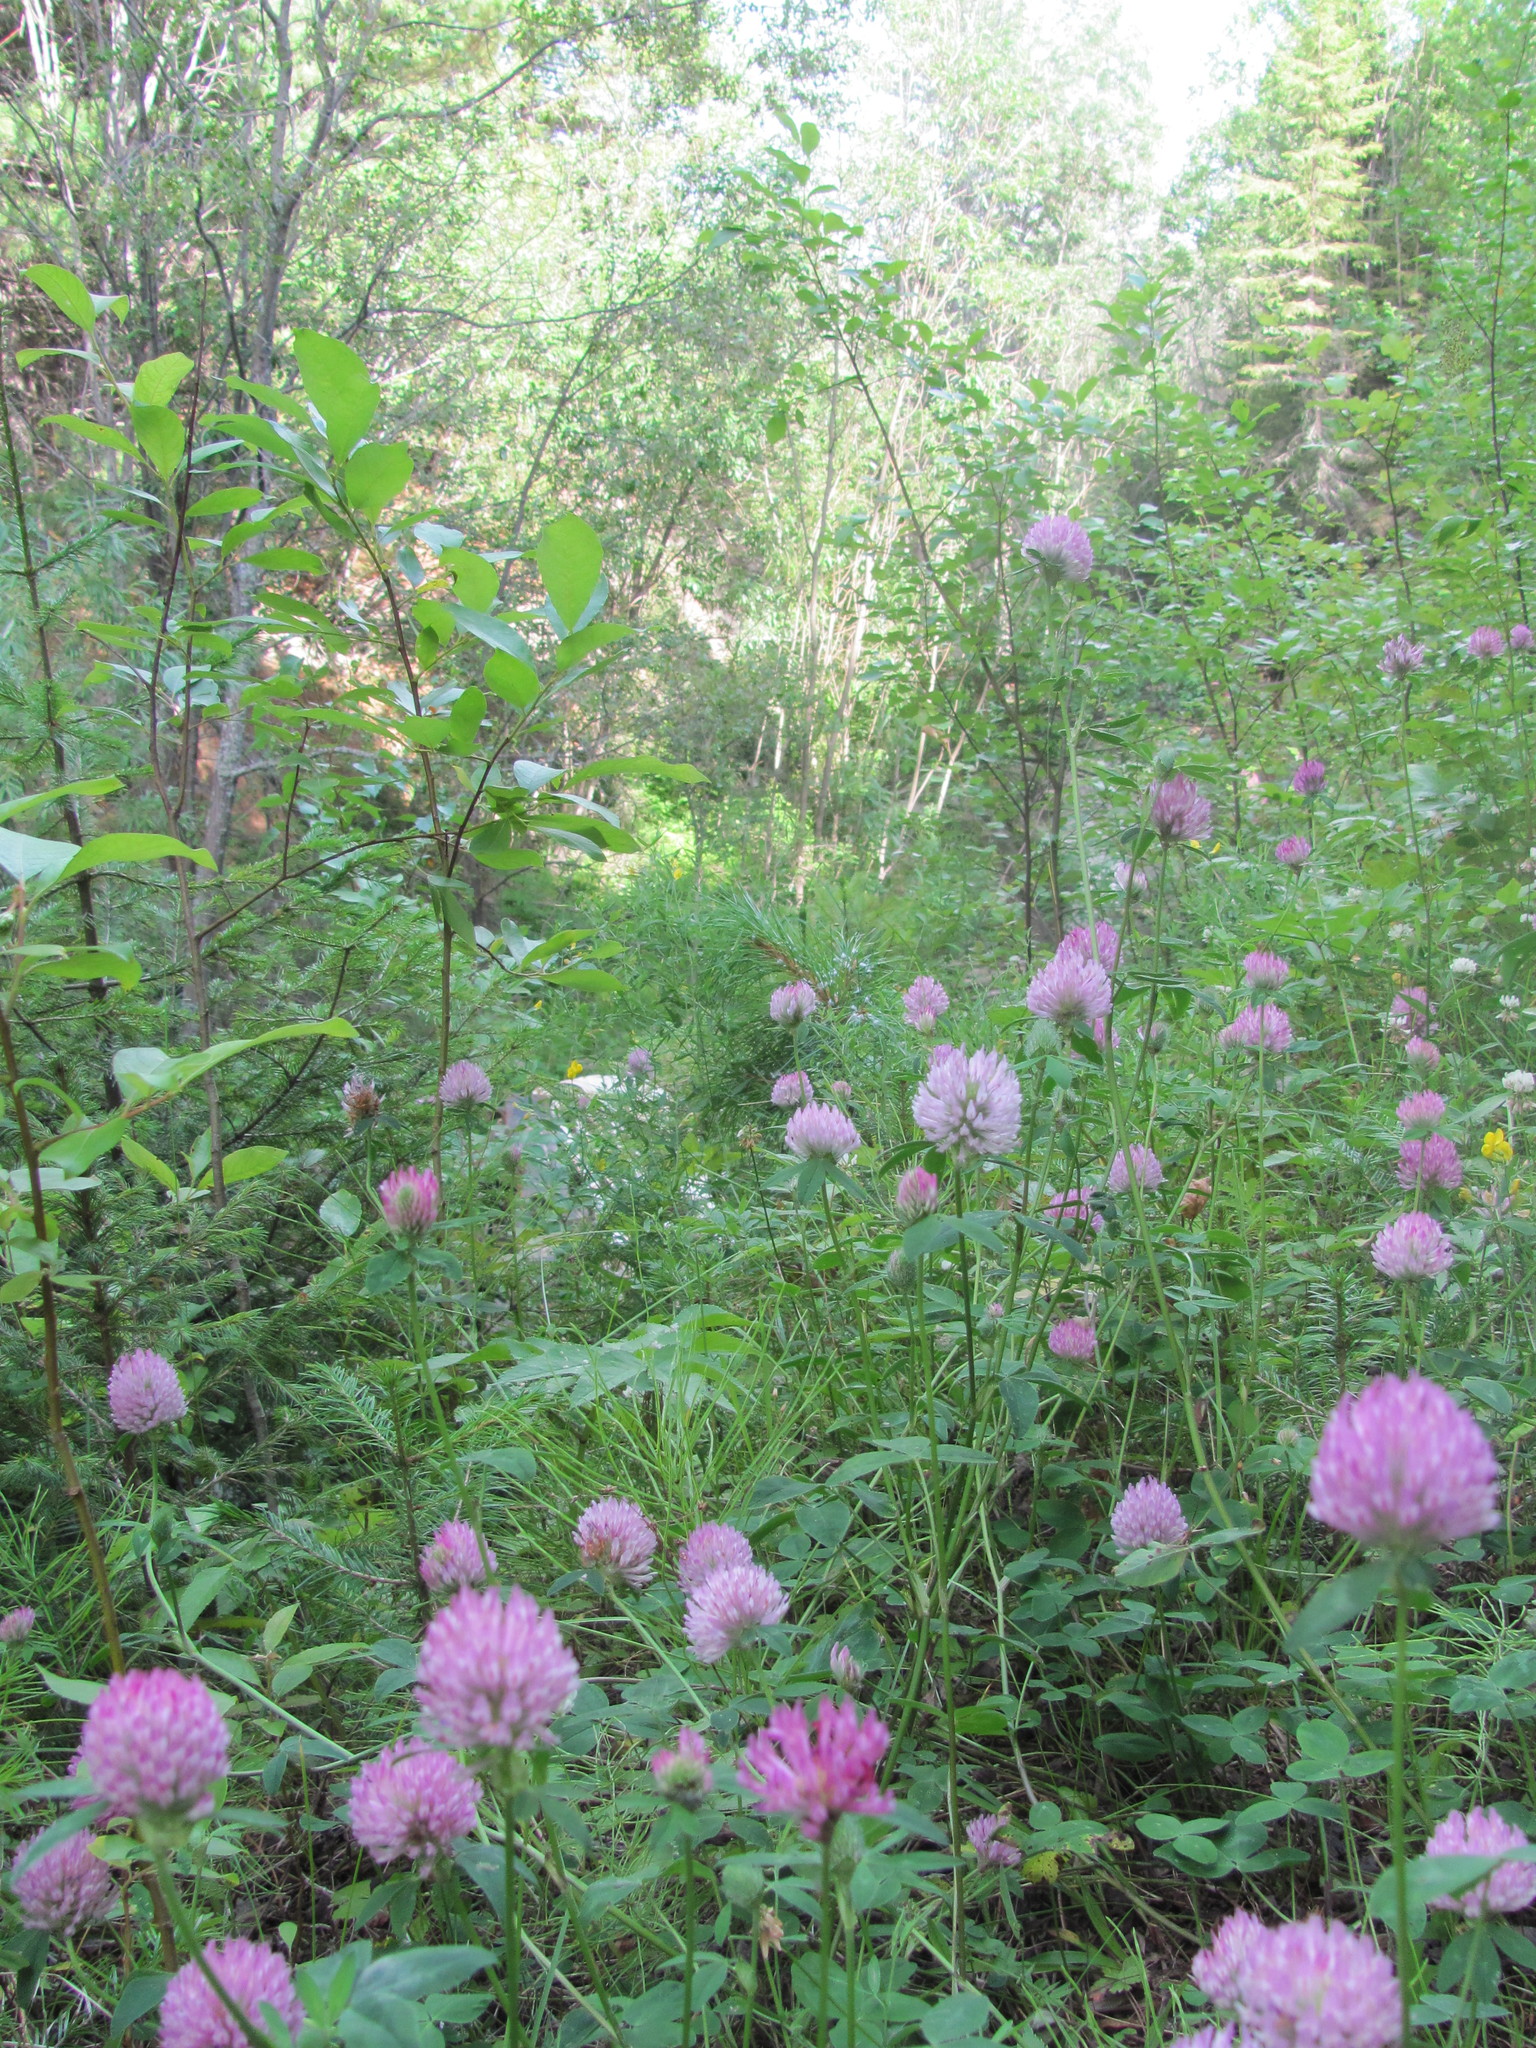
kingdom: Plantae
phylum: Tracheophyta
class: Magnoliopsida
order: Fabales
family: Fabaceae
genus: Trifolium
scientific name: Trifolium pratense
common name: Red clover
